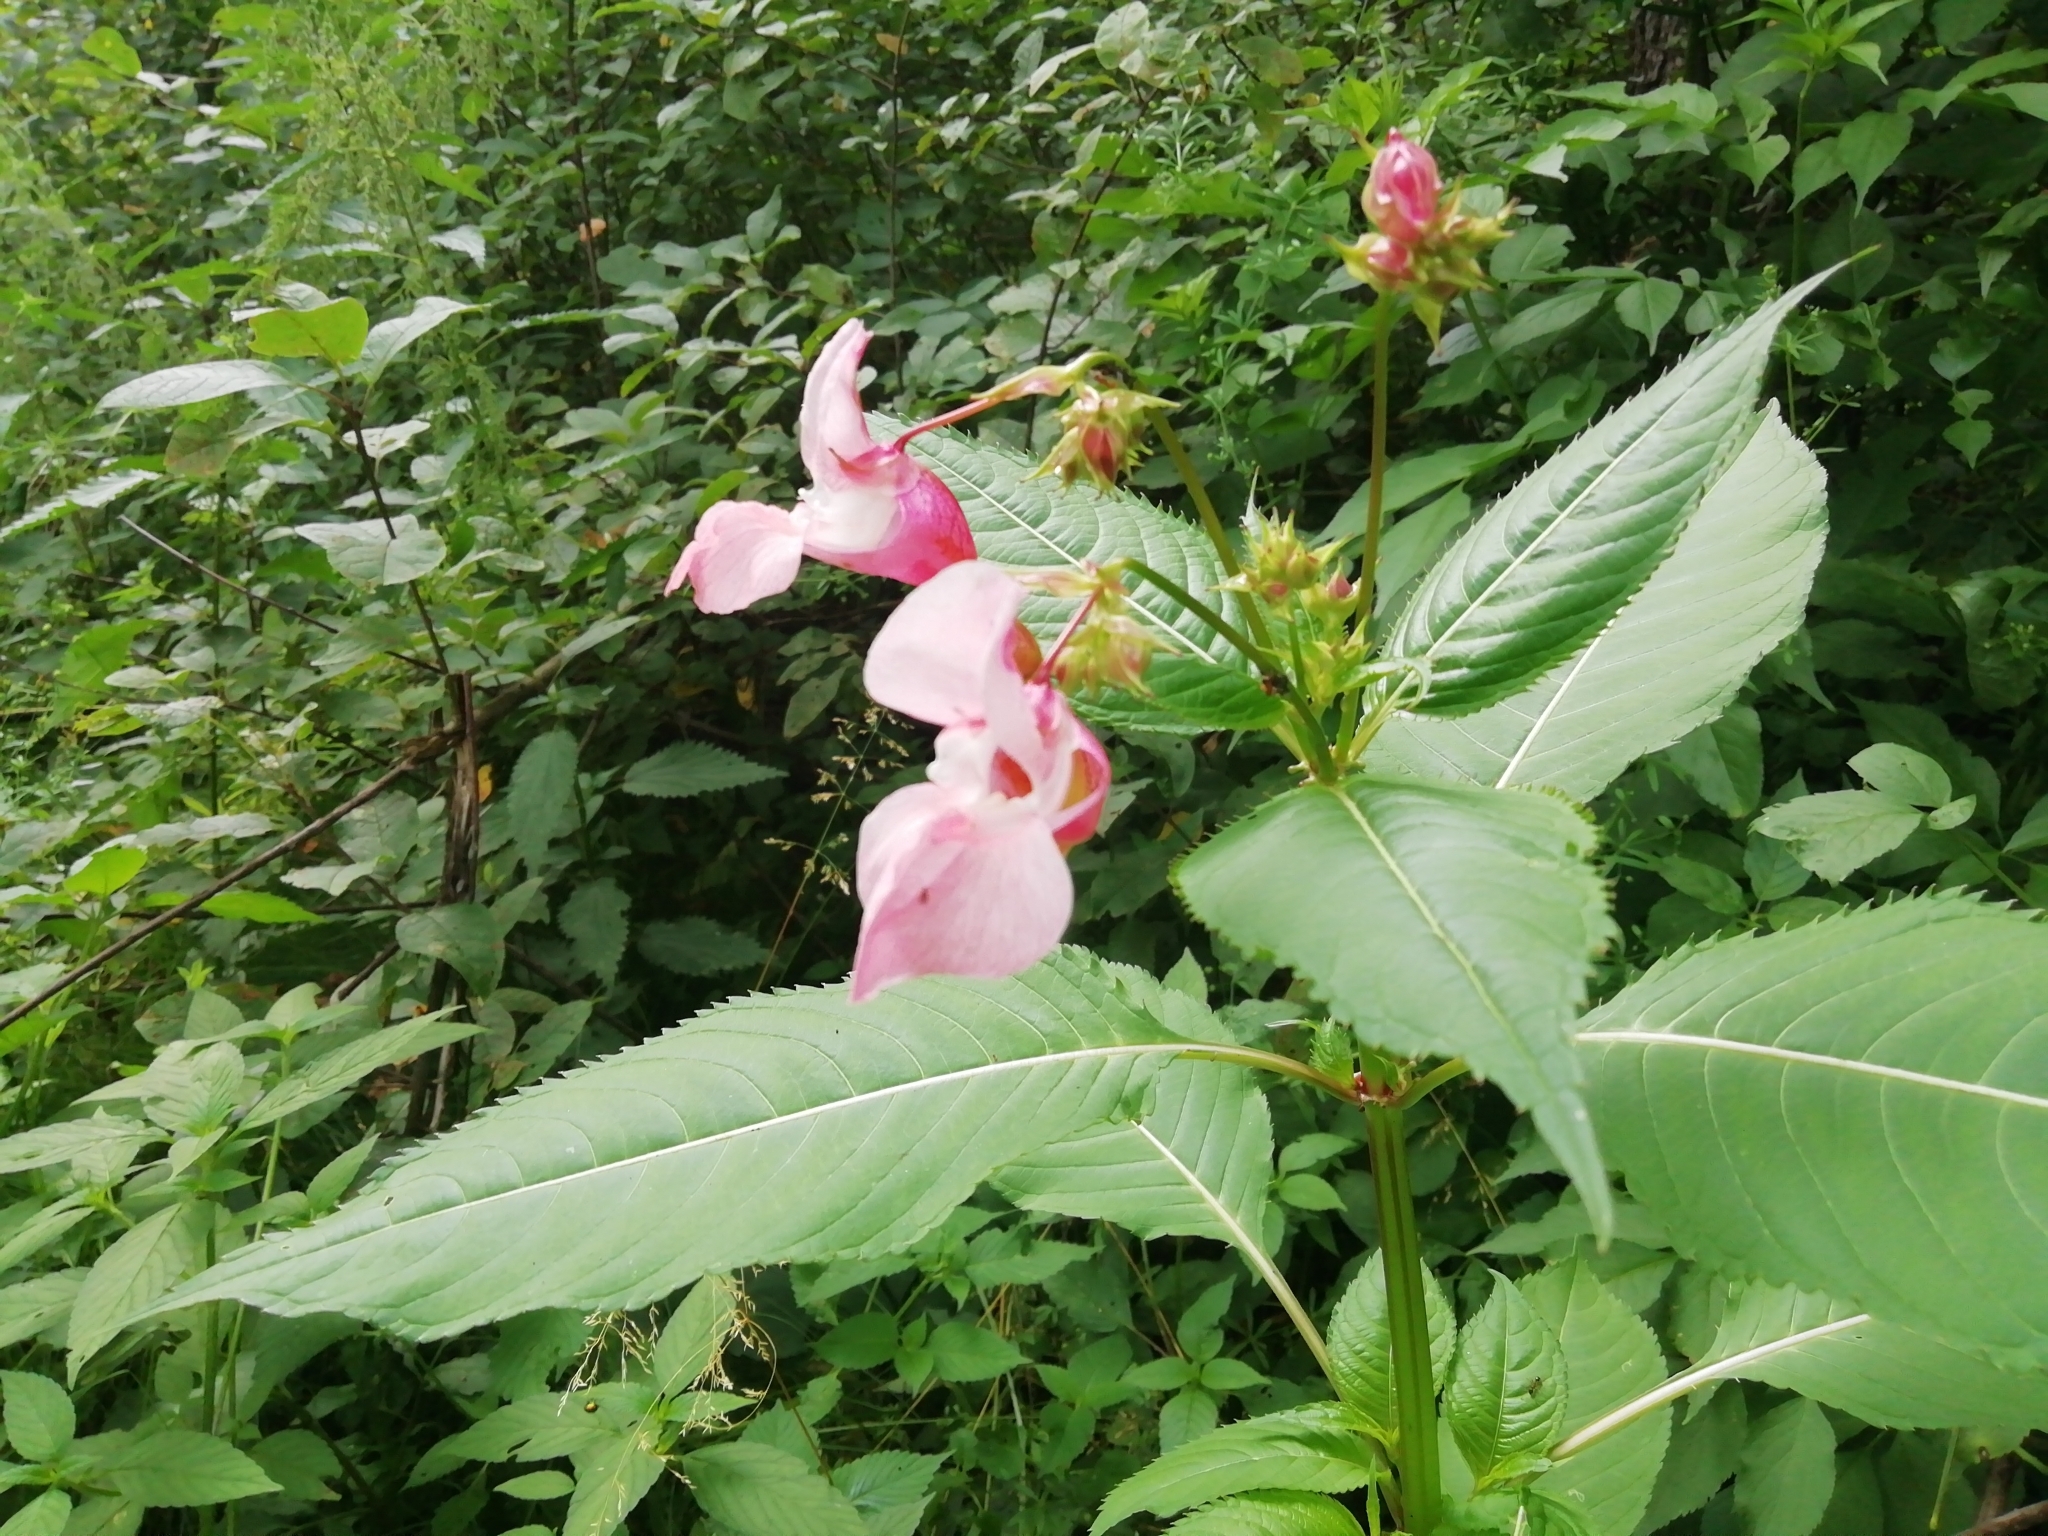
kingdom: Plantae
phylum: Tracheophyta
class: Magnoliopsida
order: Ericales
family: Balsaminaceae
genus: Impatiens
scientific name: Impatiens glandulifera
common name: Himalayan balsam
